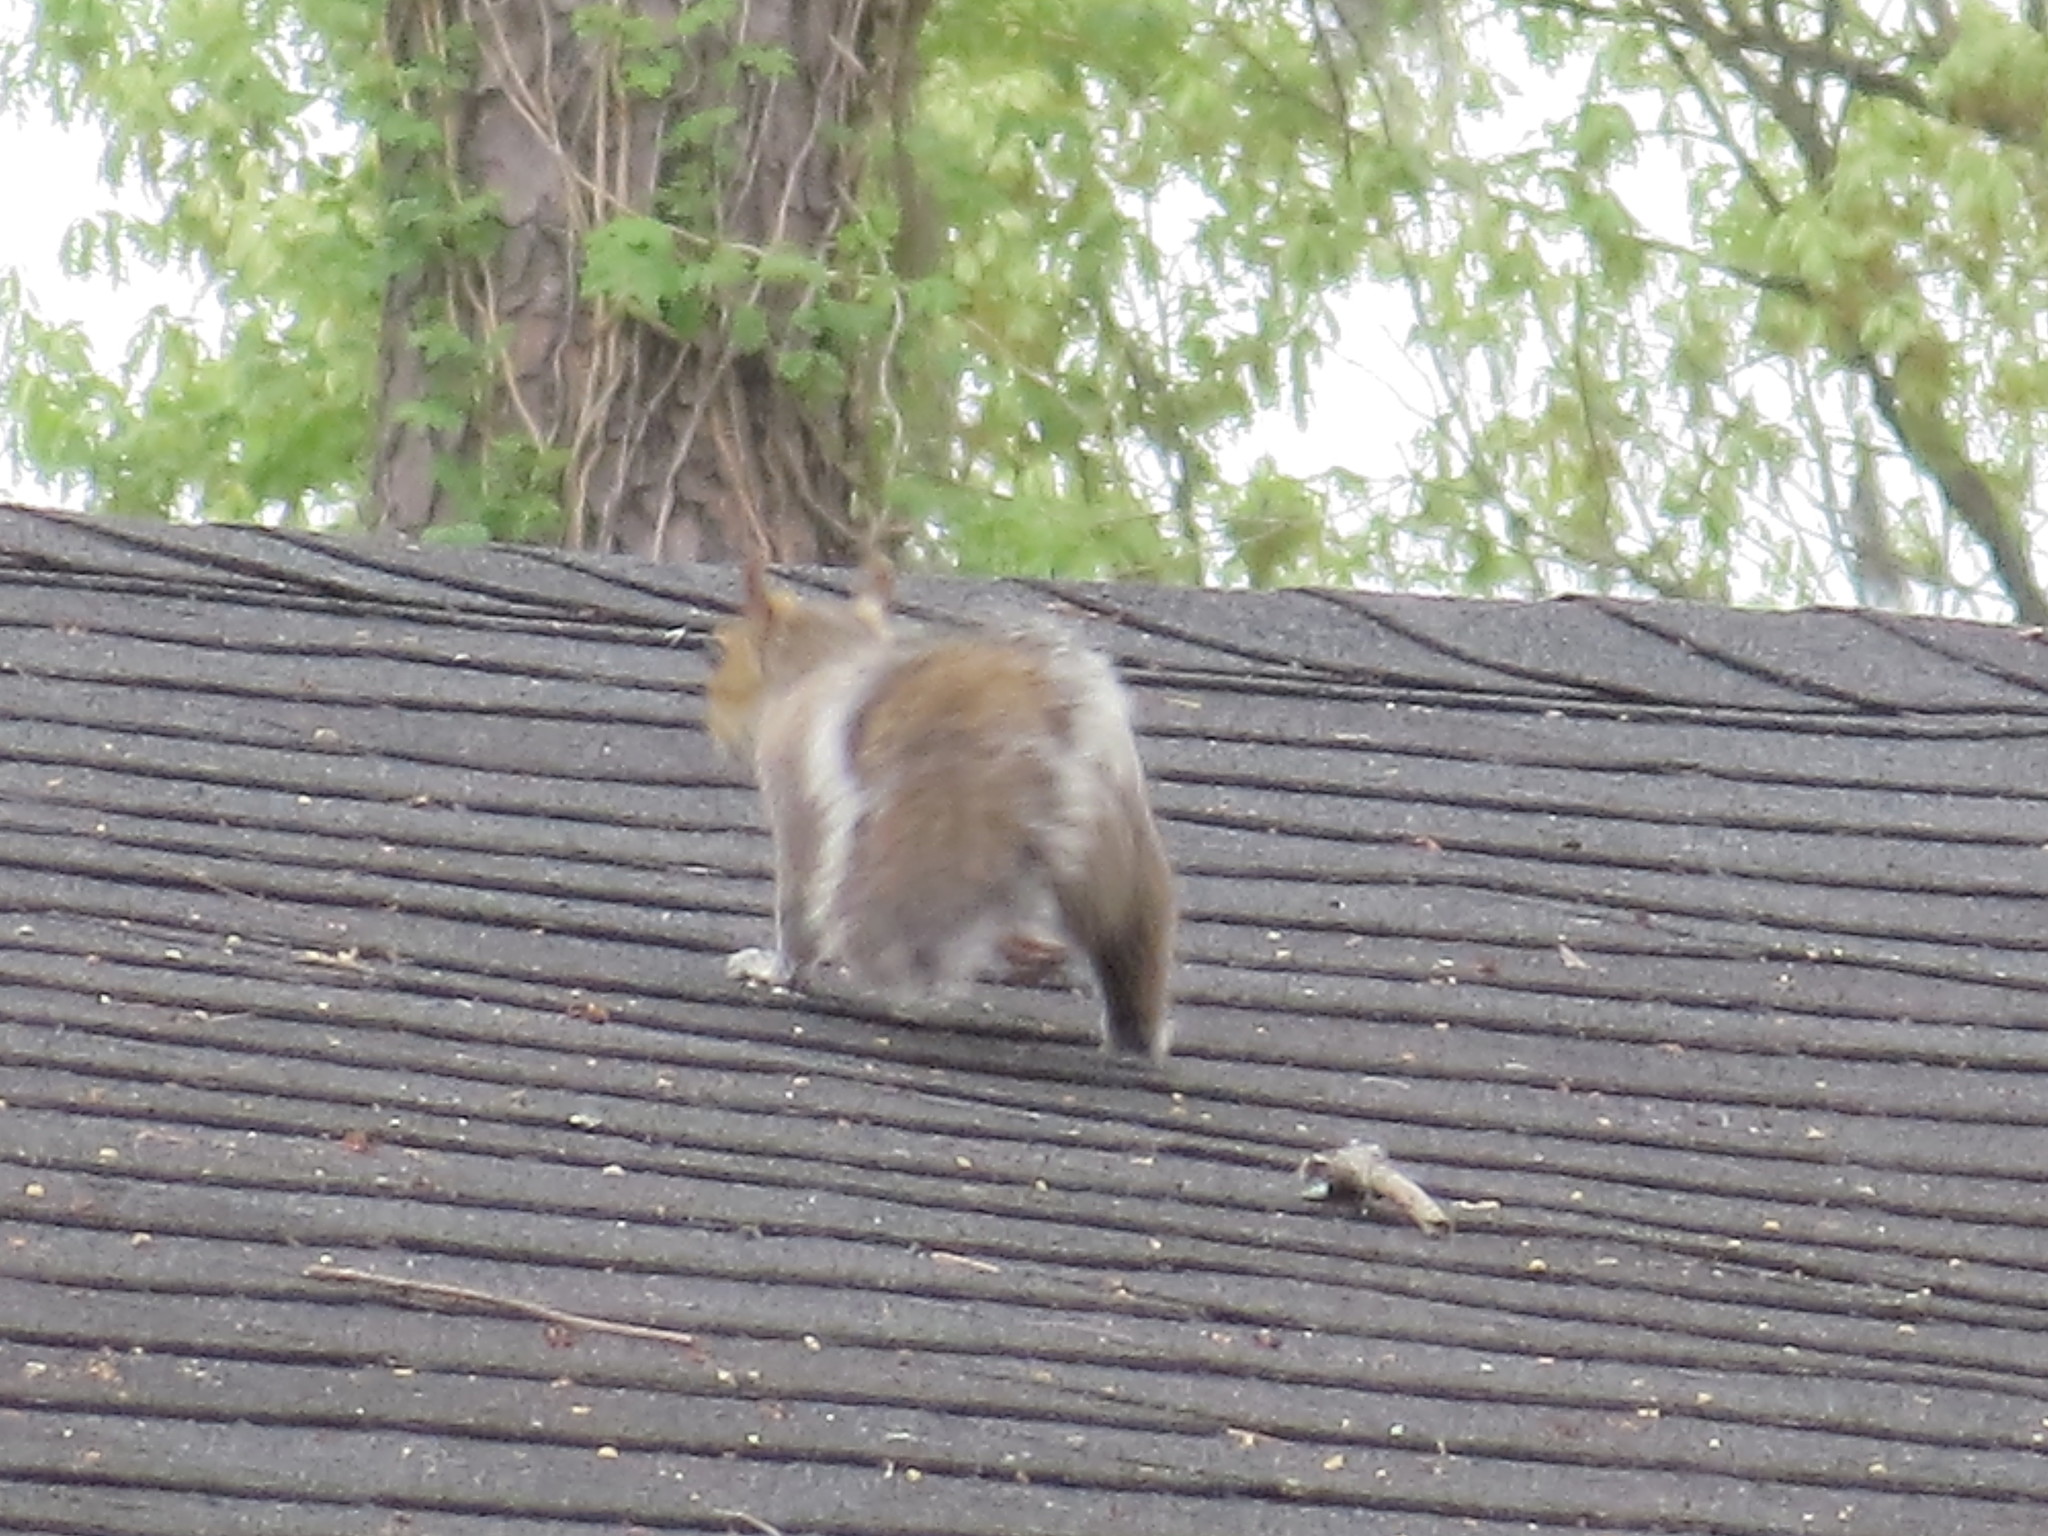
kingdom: Animalia
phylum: Chordata
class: Mammalia
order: Rodentia
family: Sciuridae
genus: Sciurus
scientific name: Sciurus carolinensis
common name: Eastern gray squirrel
